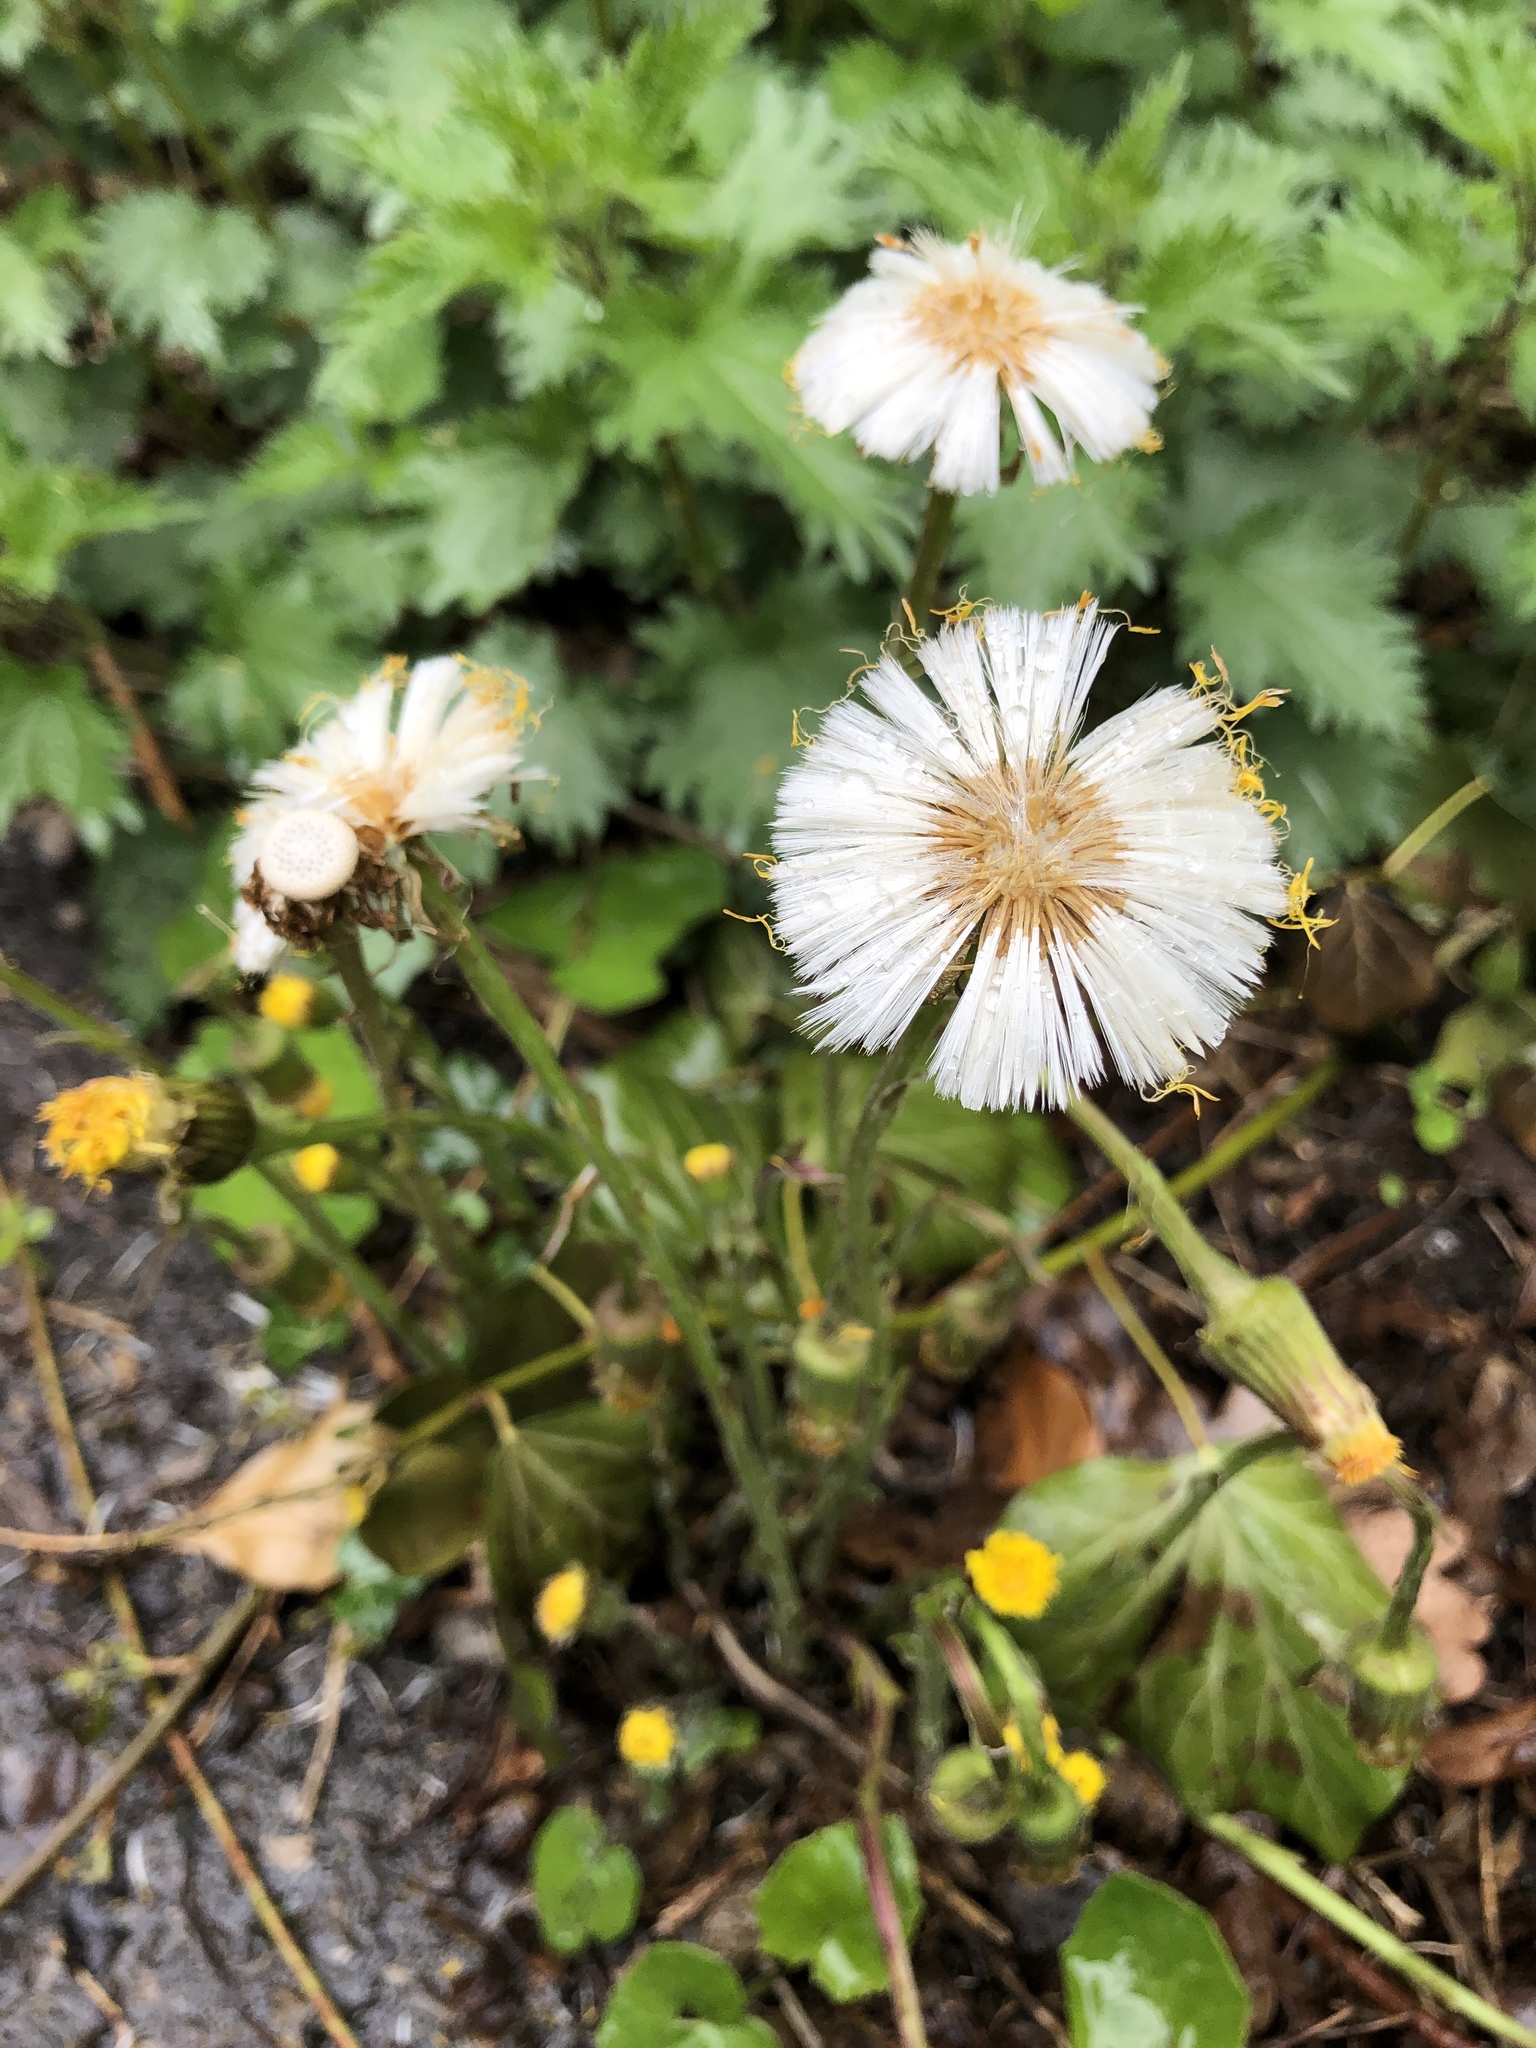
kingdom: Plantae
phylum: Tracheophyta
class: Magnoliopsida
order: Asterales
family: Asteraceae
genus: Tussilago
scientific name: Tussilago farfara
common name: Coltsfoot
